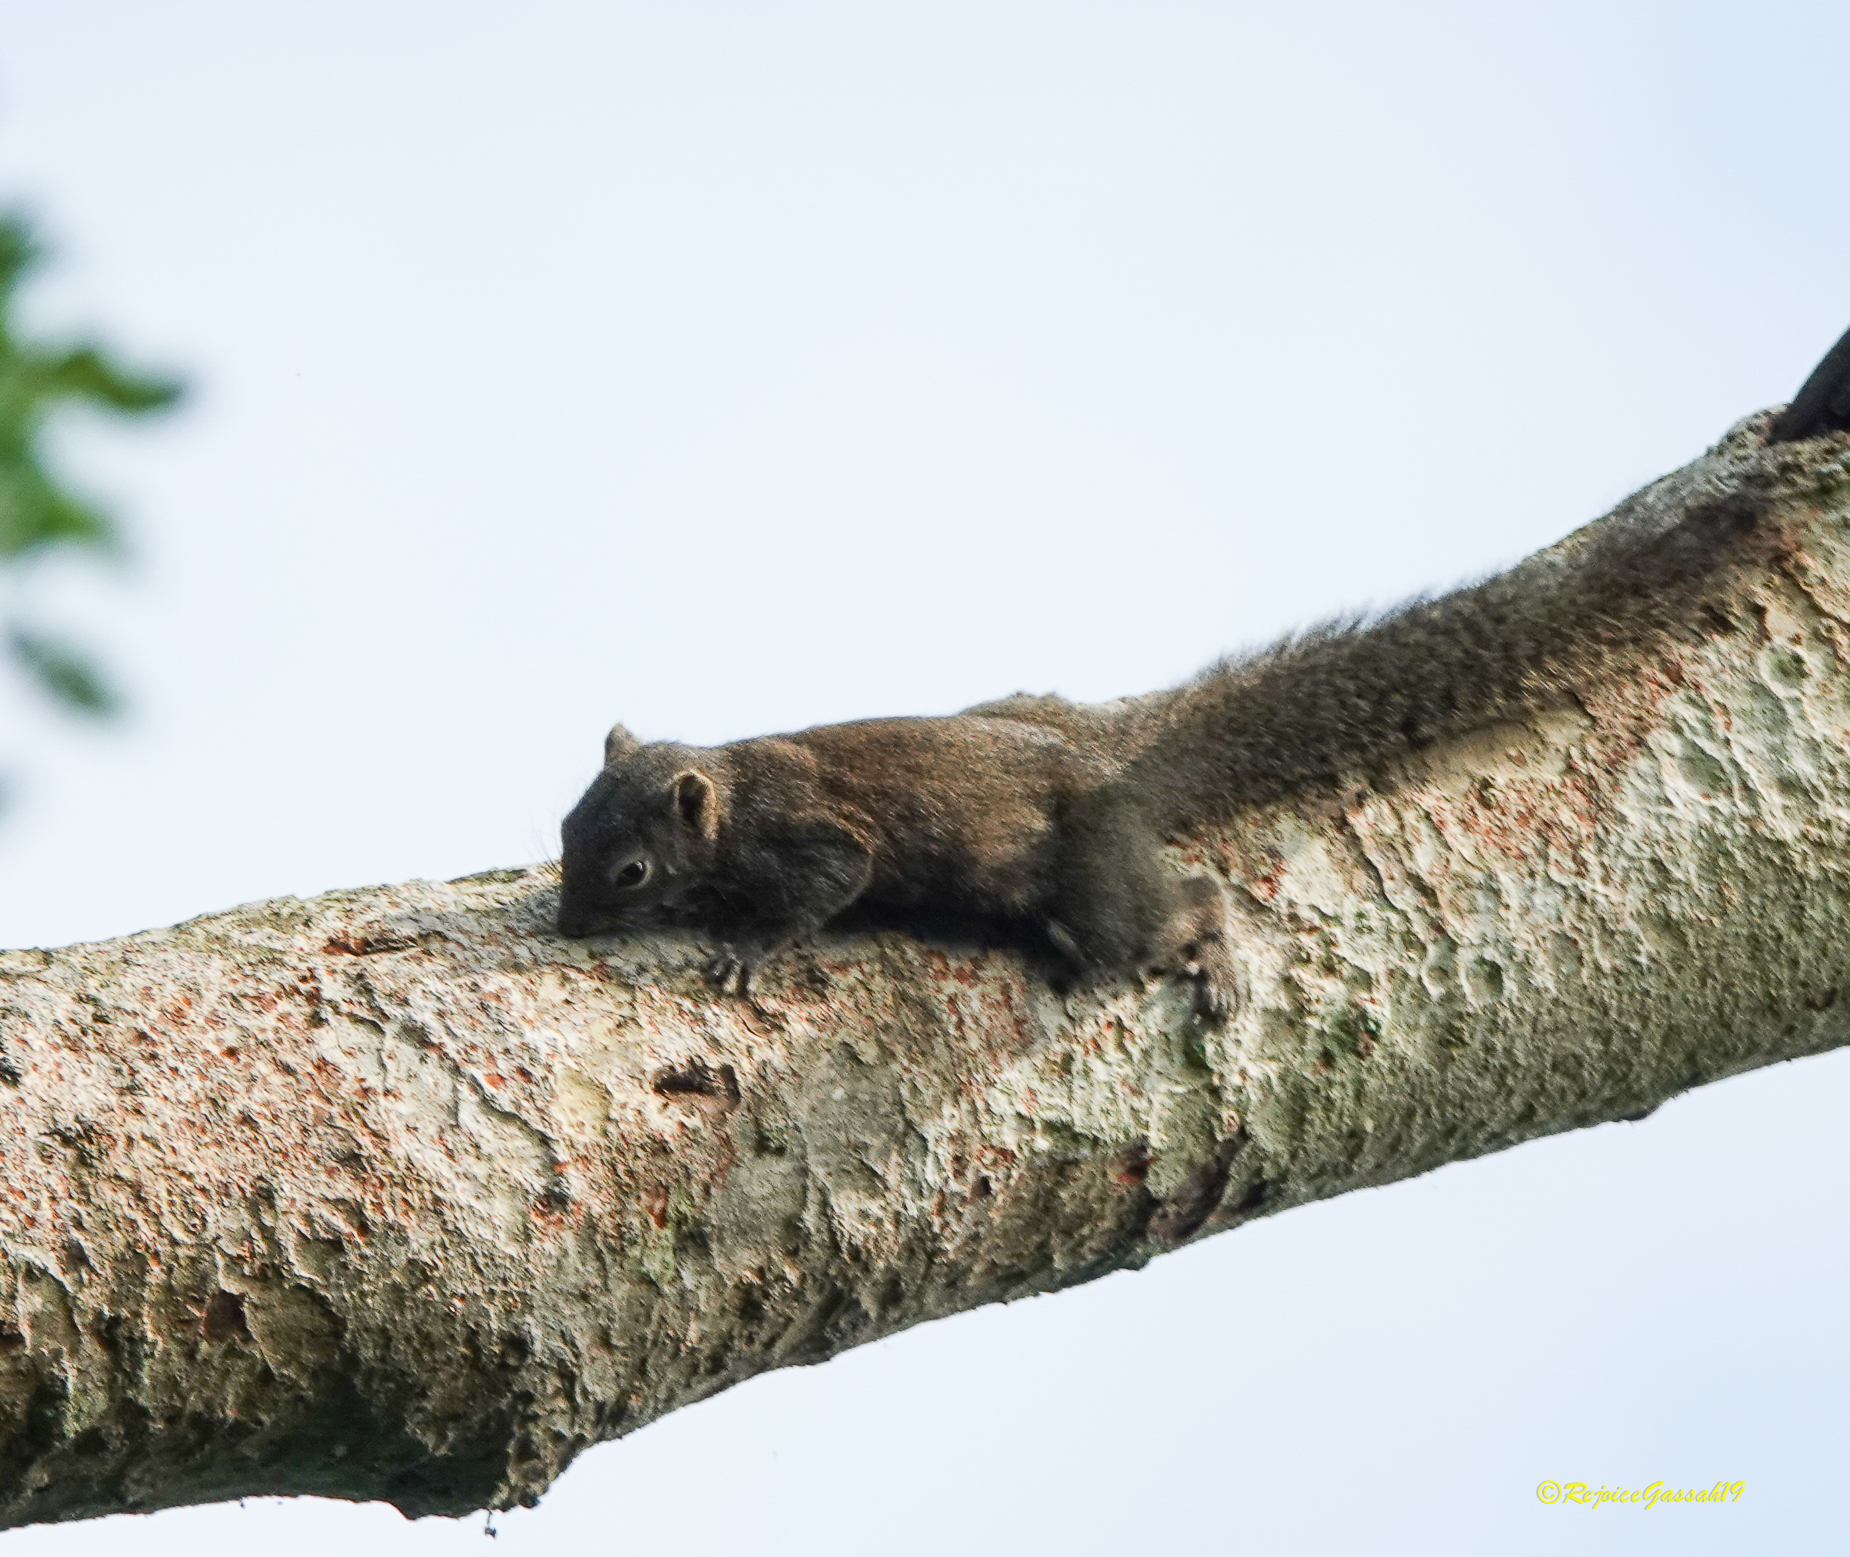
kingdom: Animalia
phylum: Chordata
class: Mammalia
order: Rodentia
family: Sciuridae
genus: Callosciurus
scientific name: Callosciurus pygerythrus
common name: Irrawaddy squirrel
